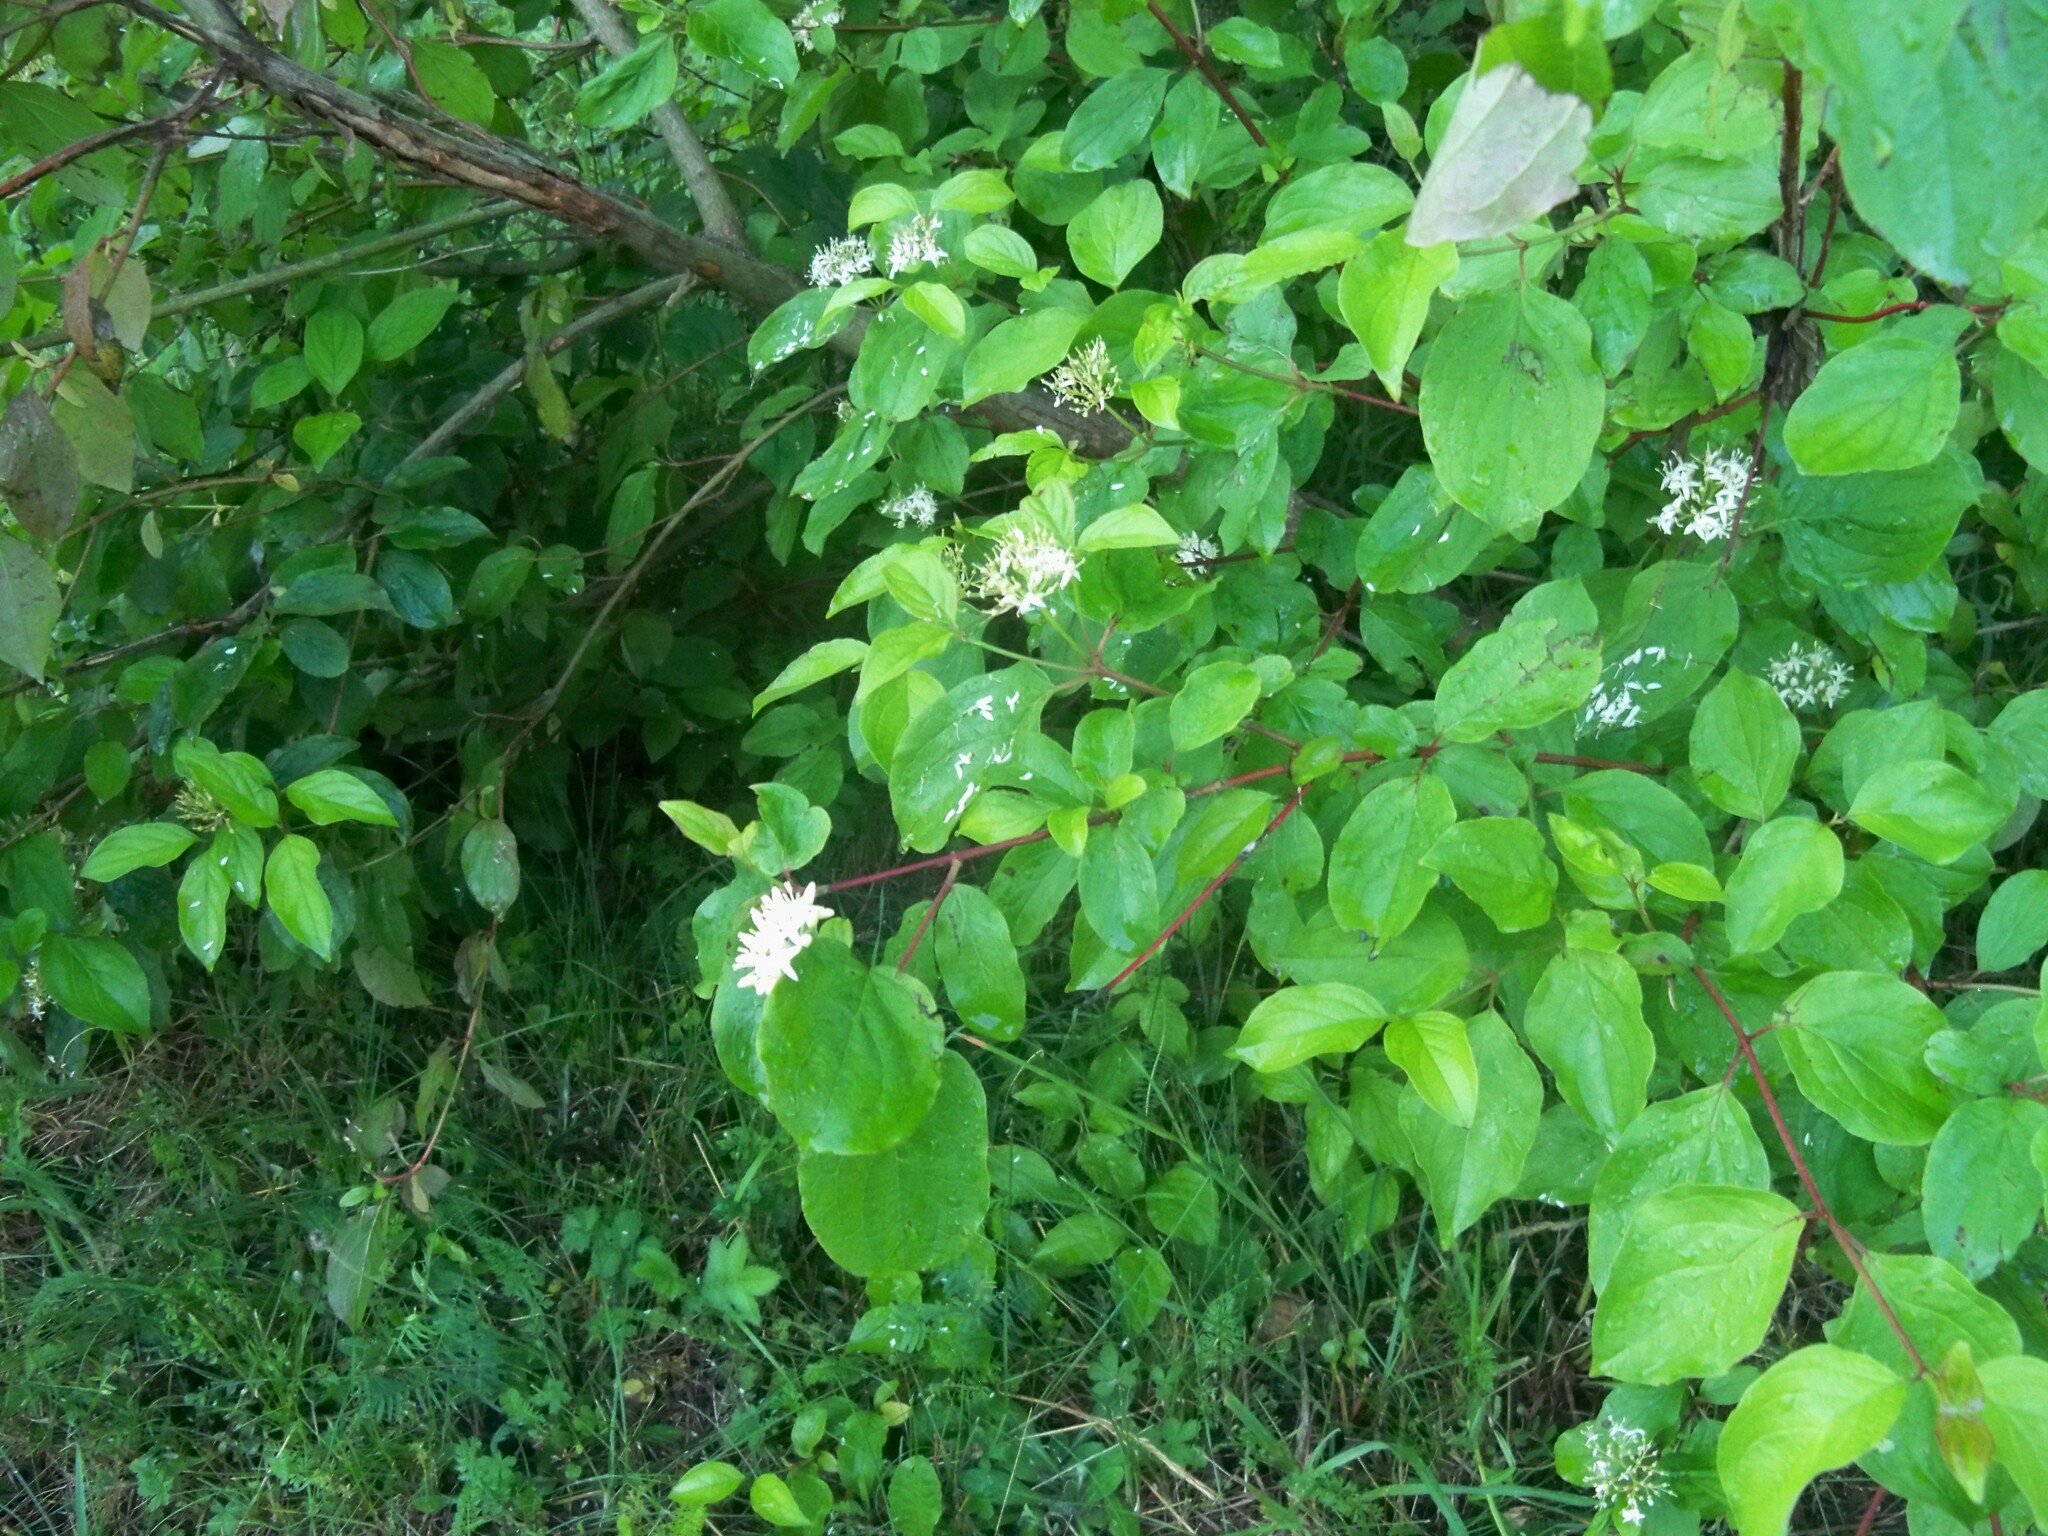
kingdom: Plantae
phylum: Tracheophyta
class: Magnoliopsida
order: Cornales
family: Cornaceae
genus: Cornus
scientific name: Cornus sanguinea
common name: Dogwood
